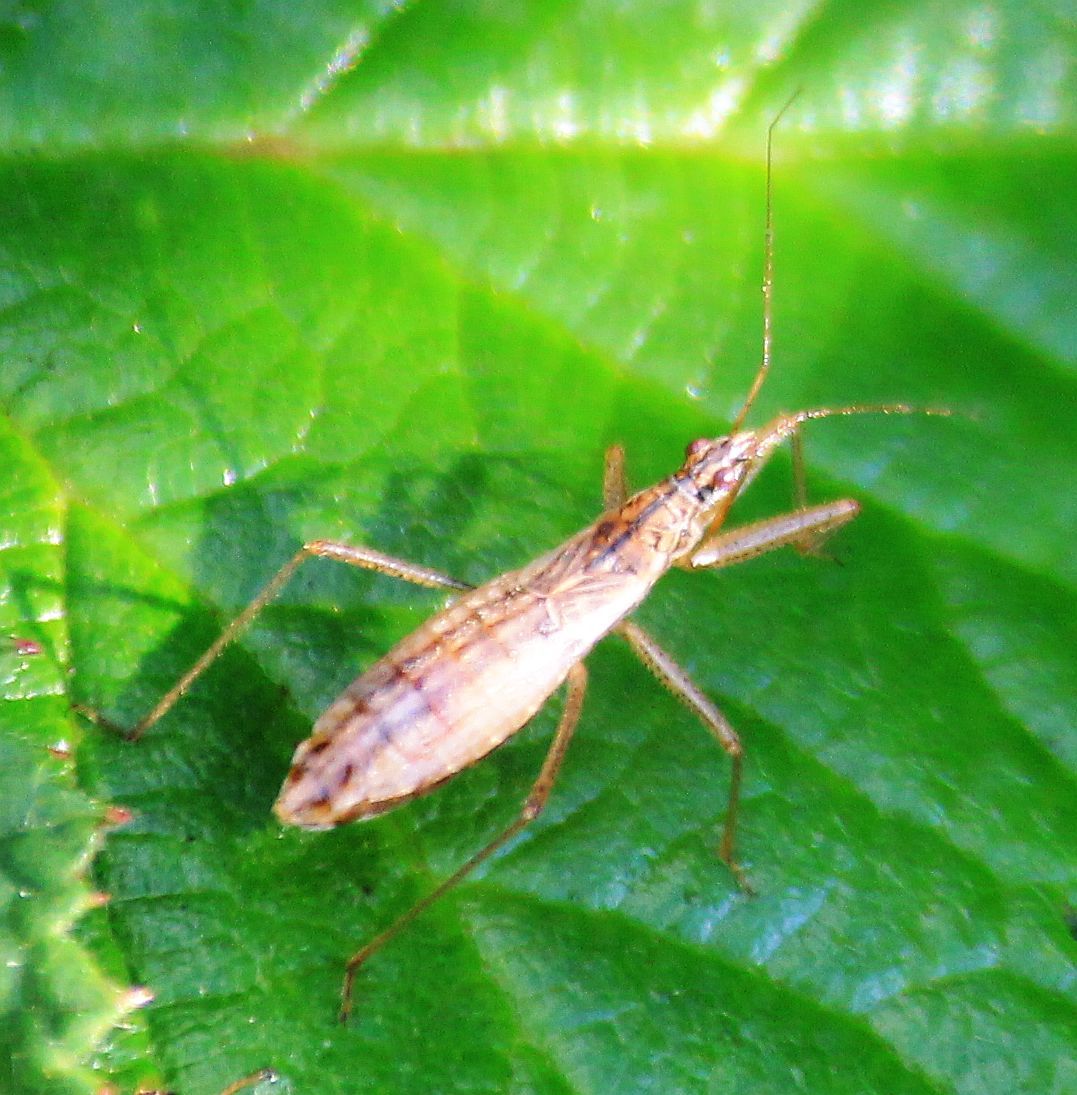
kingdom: Animalia
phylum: Arthropoda
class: Insecta
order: Hemiptera
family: Nabidae
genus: Nabis
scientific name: Nabis limbatus
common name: Marsh damselbug
